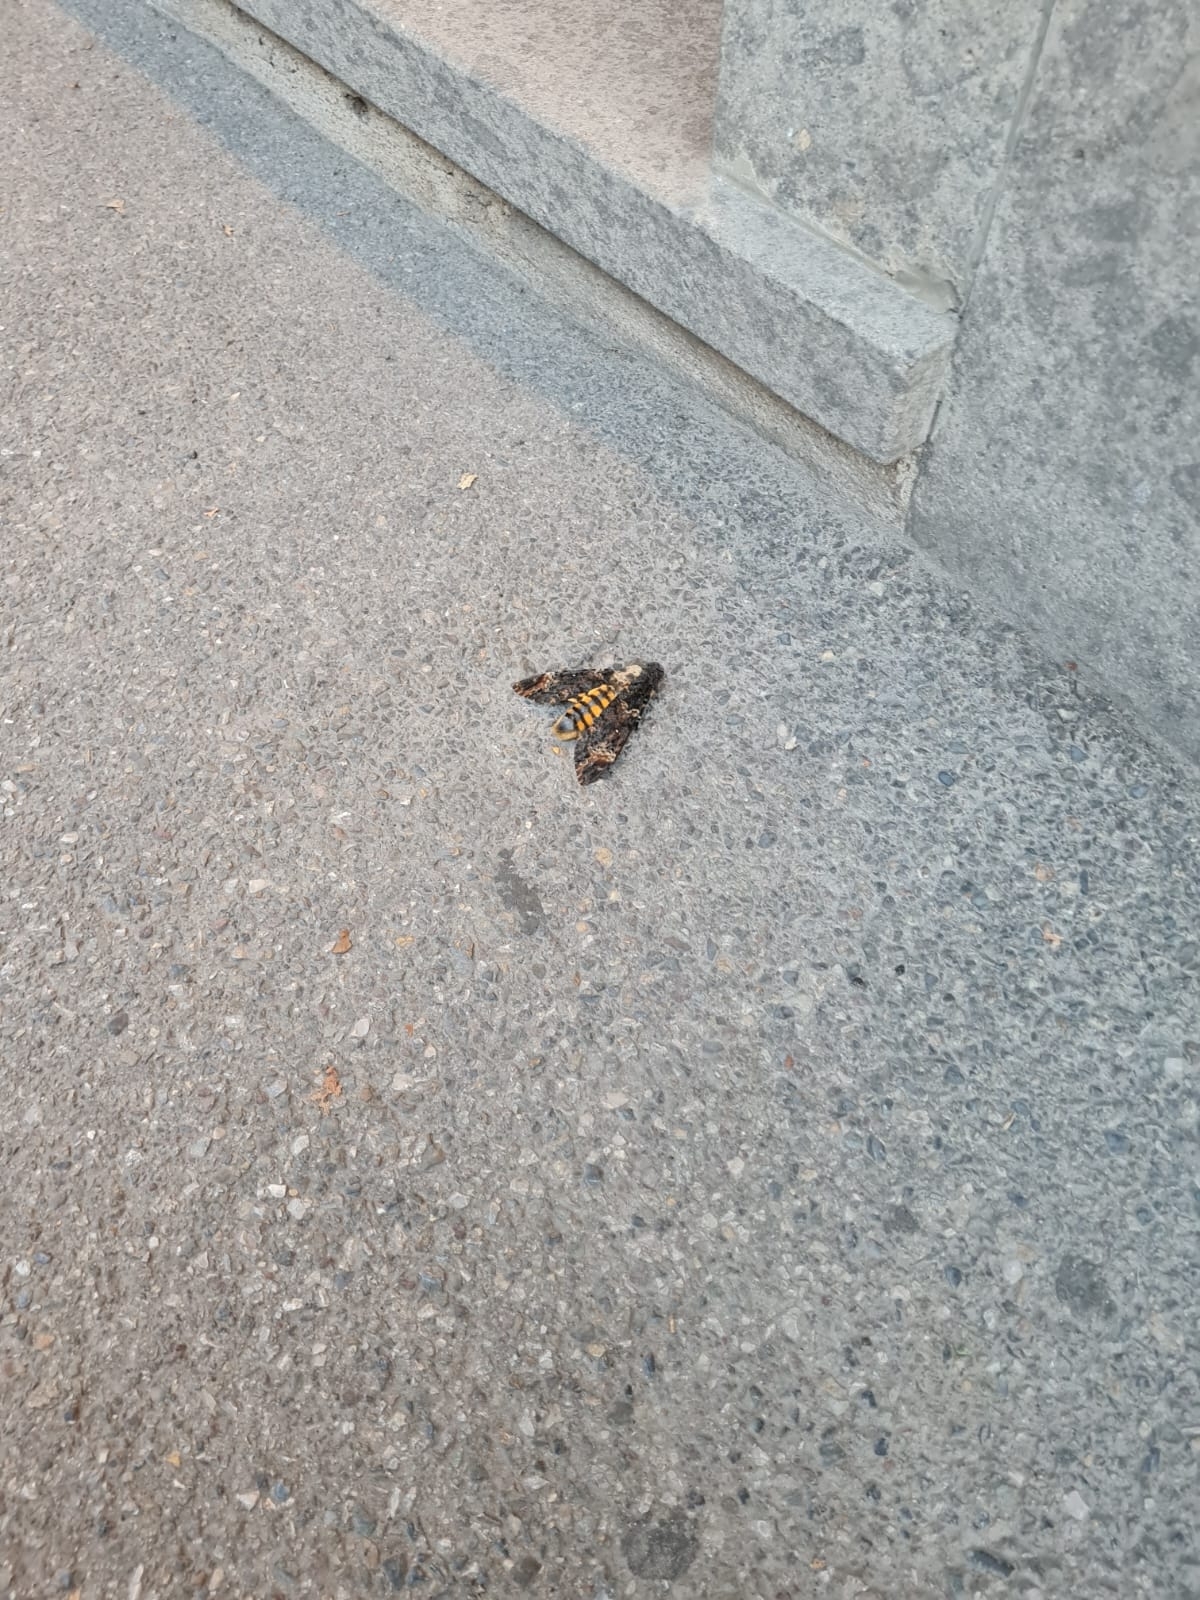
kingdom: Animalia
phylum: Arthropoda
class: Insecta
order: Lepidoptera
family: Sphingidae
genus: Acherontia
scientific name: Acherontia atropos
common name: Death's-head hawk moth
